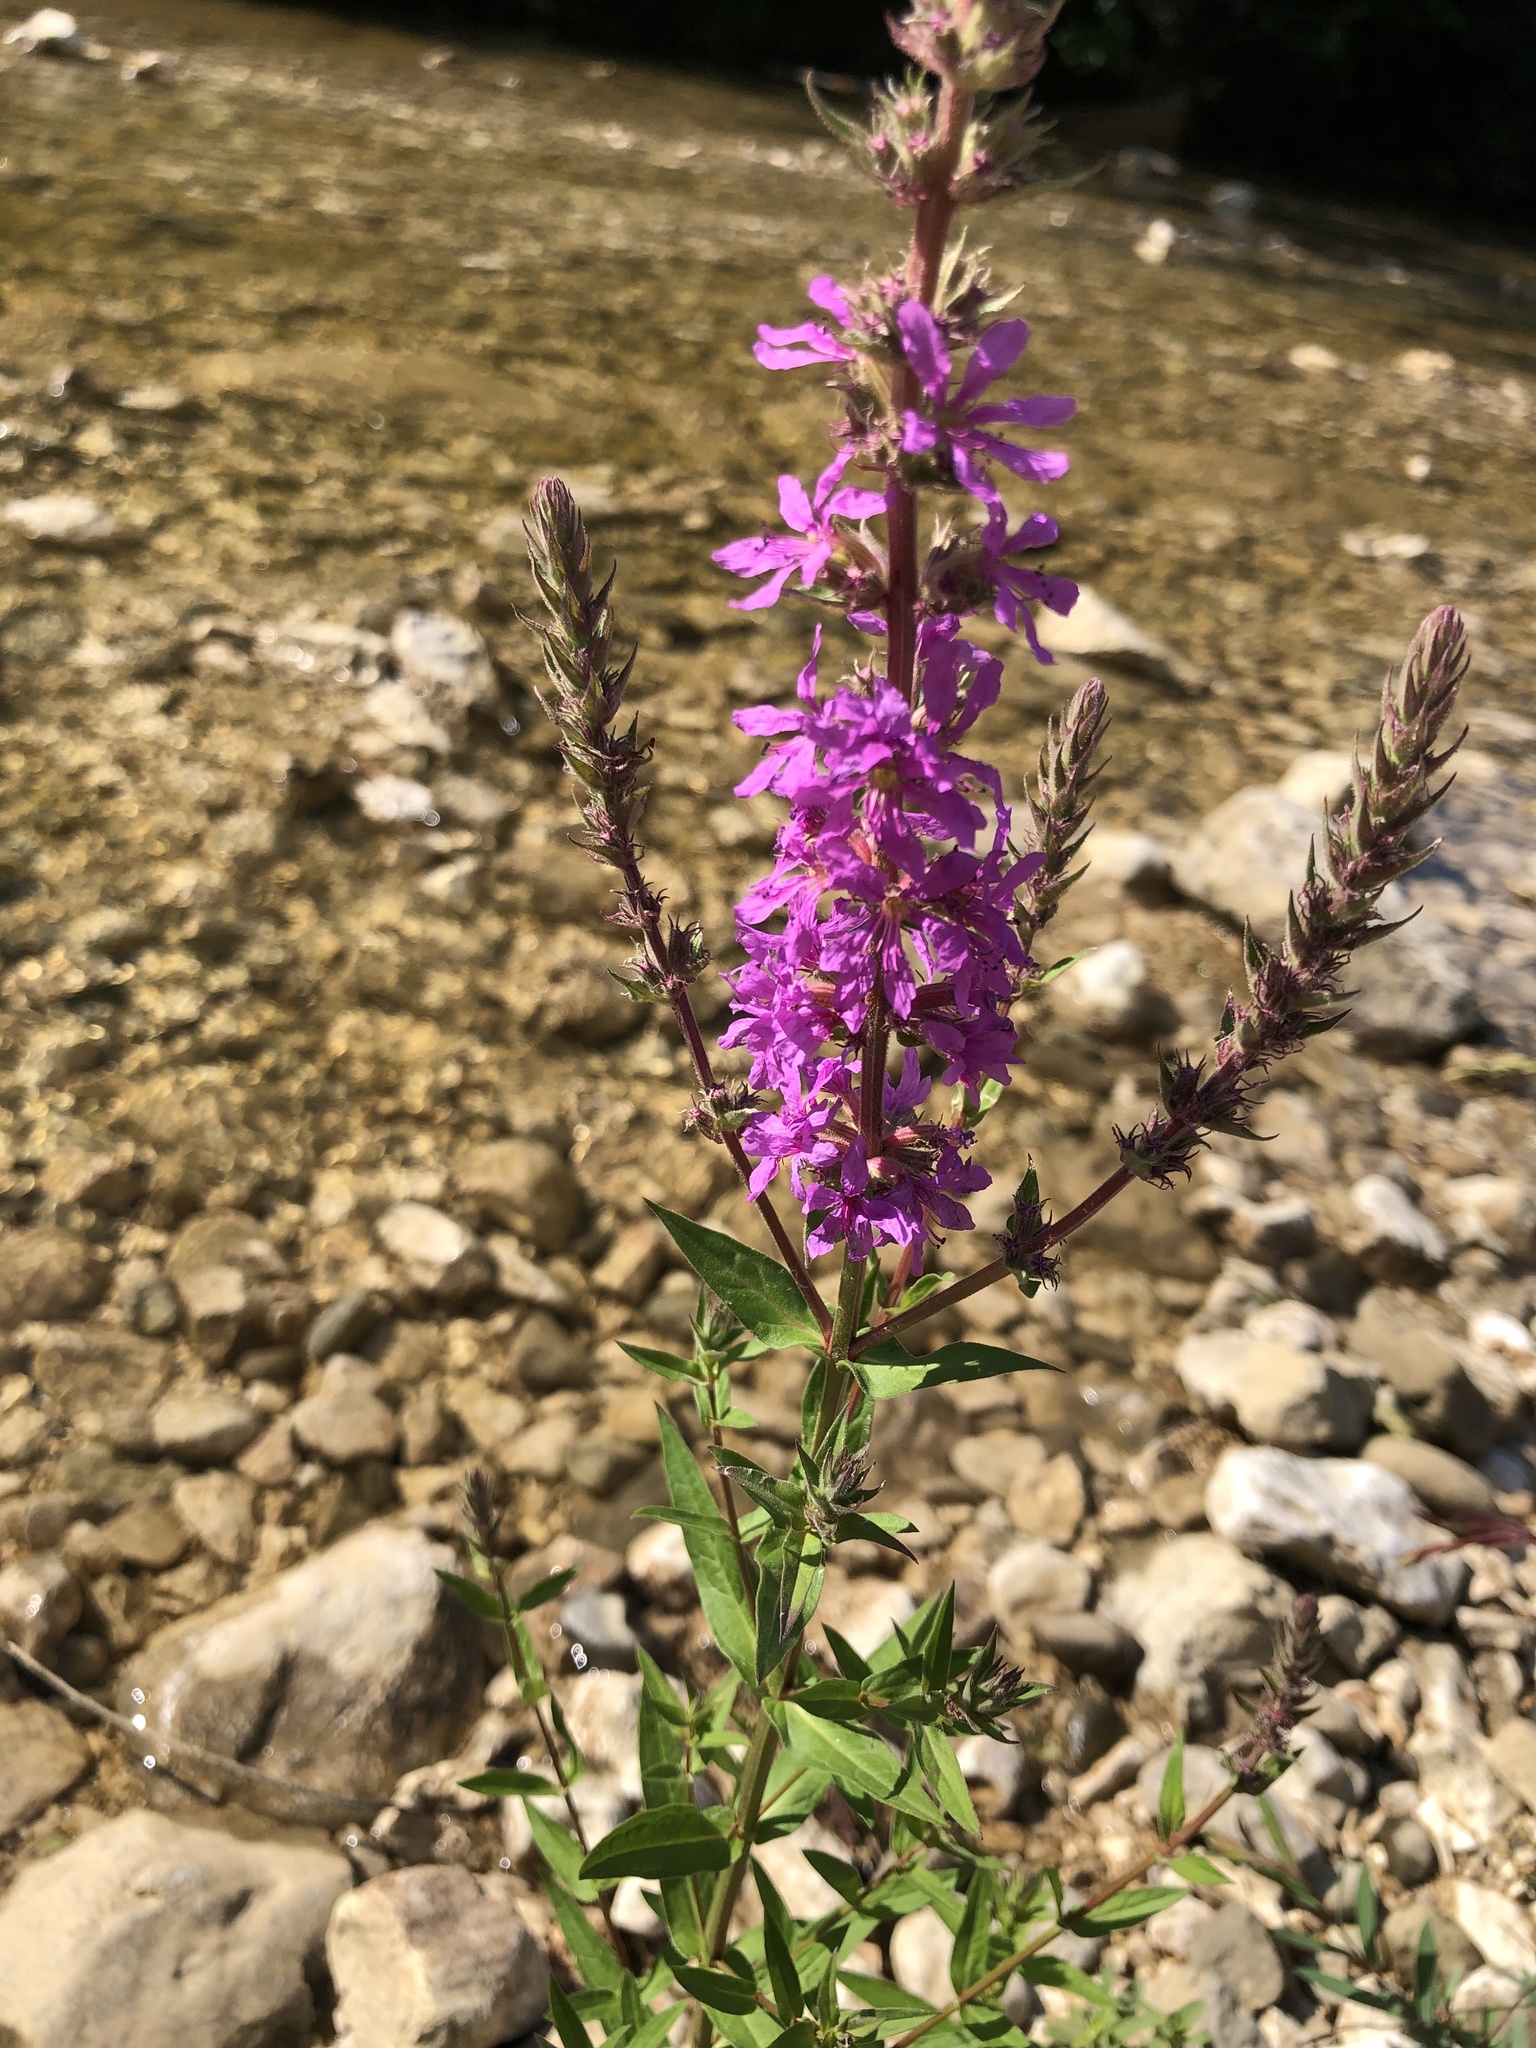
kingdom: Plantae
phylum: Tracheophyta
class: Magnoliopsida
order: Myrtales
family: Lythraceae
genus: Lythrum
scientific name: Lythrum salicaria
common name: Purple loosestrife
